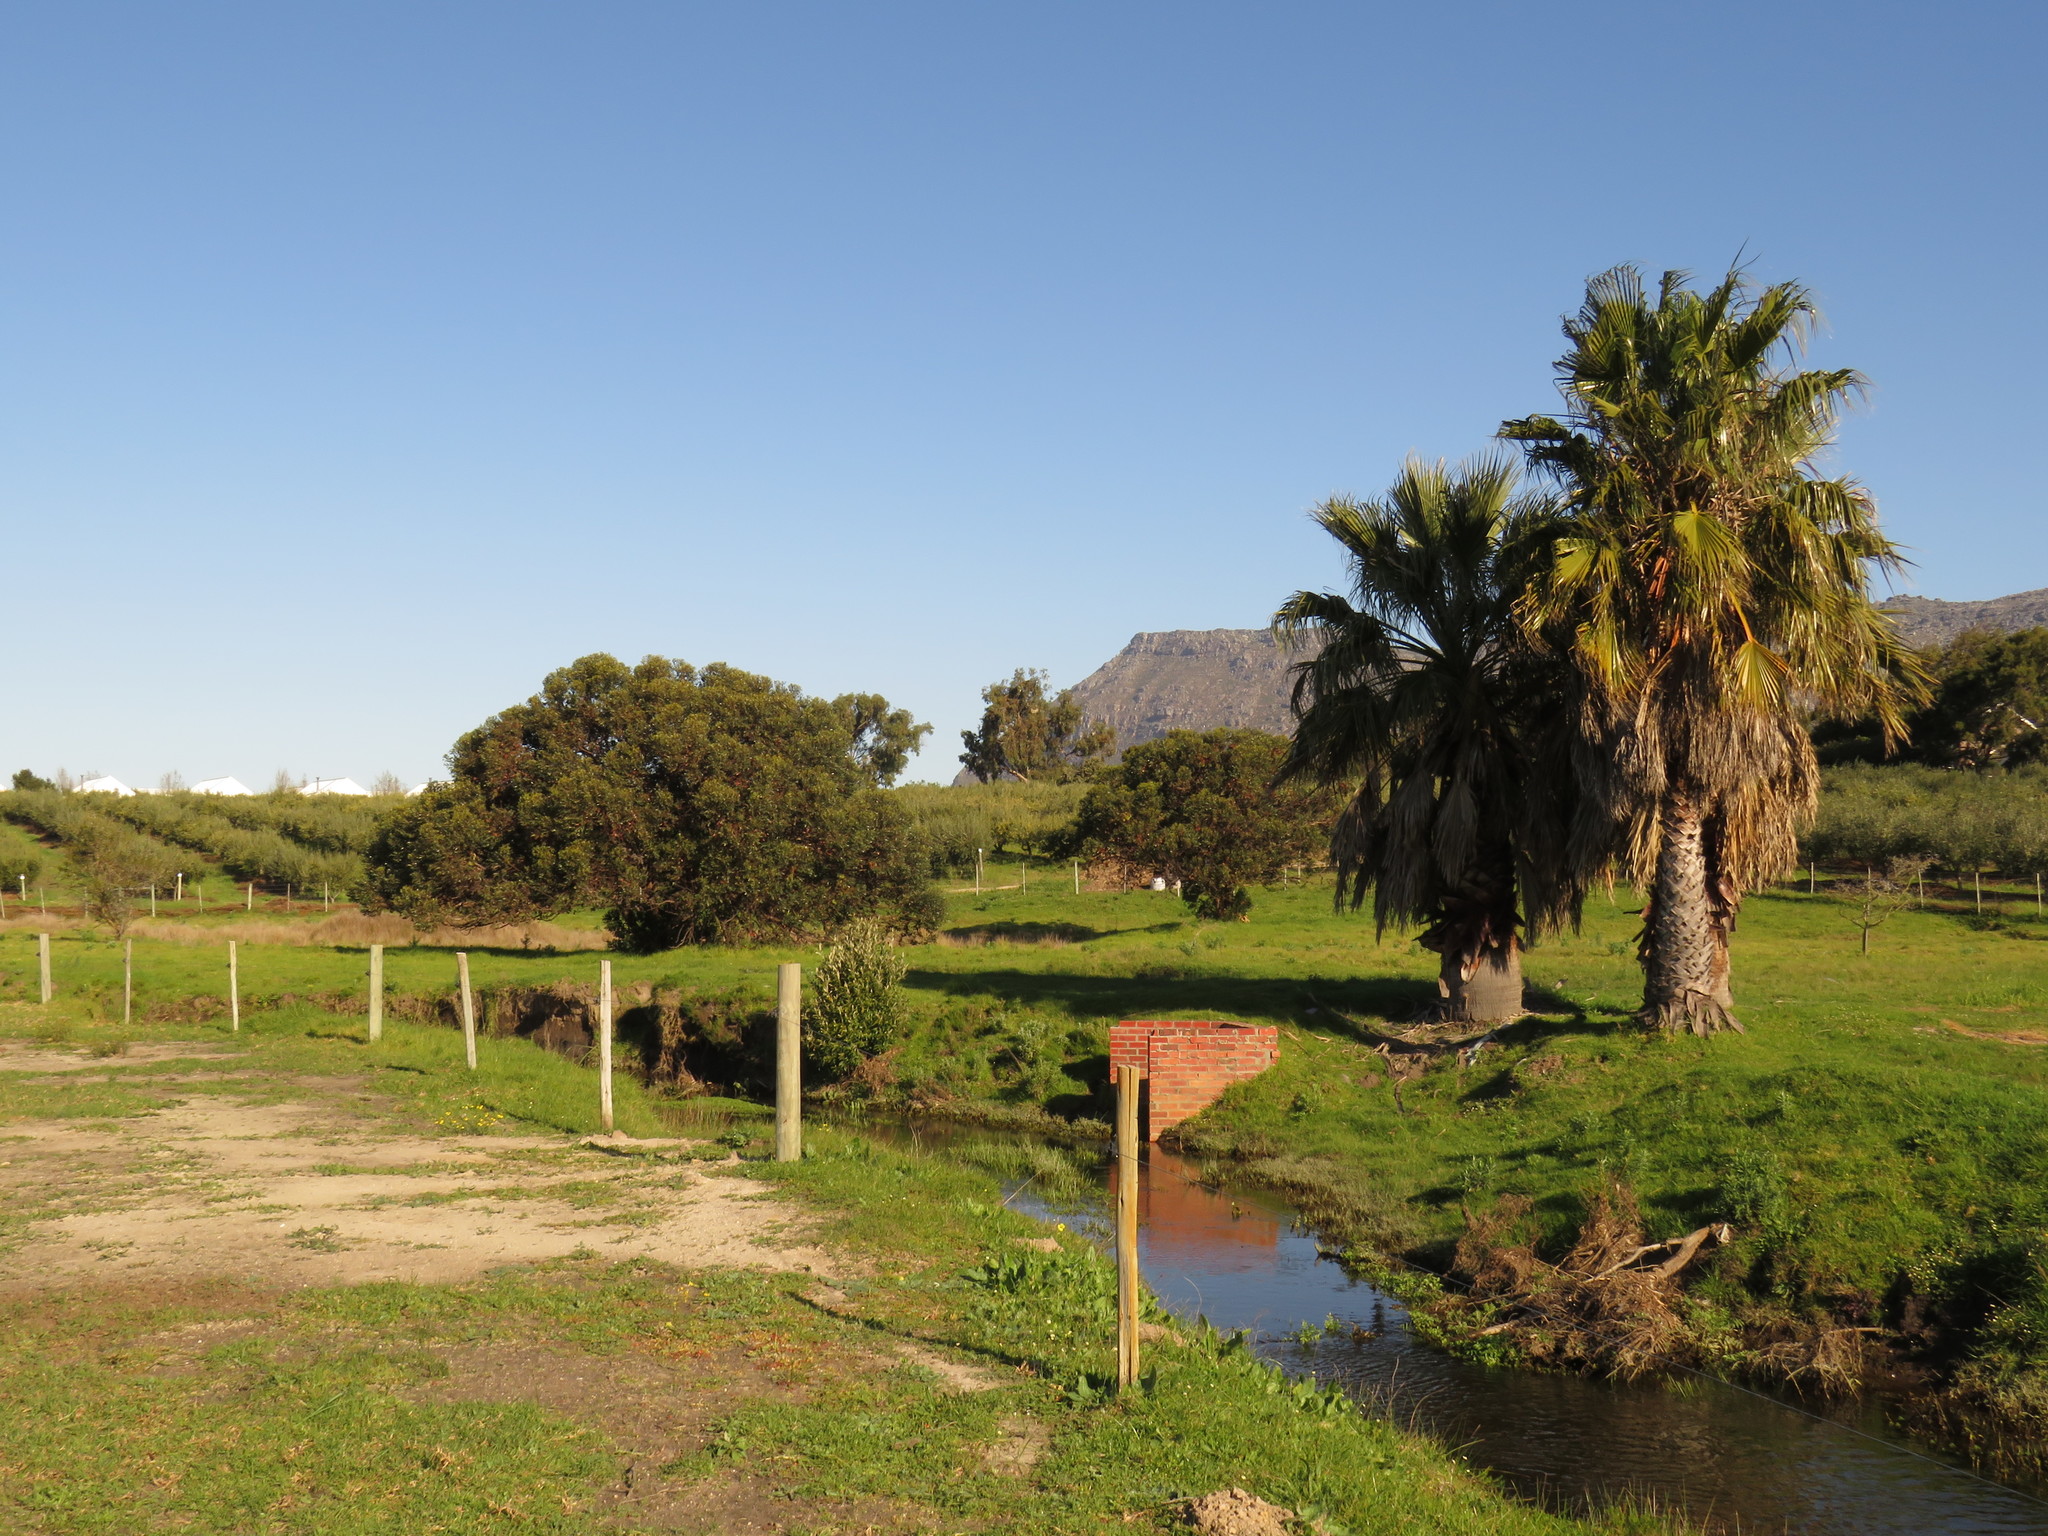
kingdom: Plantae
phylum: Tracheophyta
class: Magnoliopsida
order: Myrtales
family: Myrtaceae
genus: Eucalyptus
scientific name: Eucalyptus conferruminata
